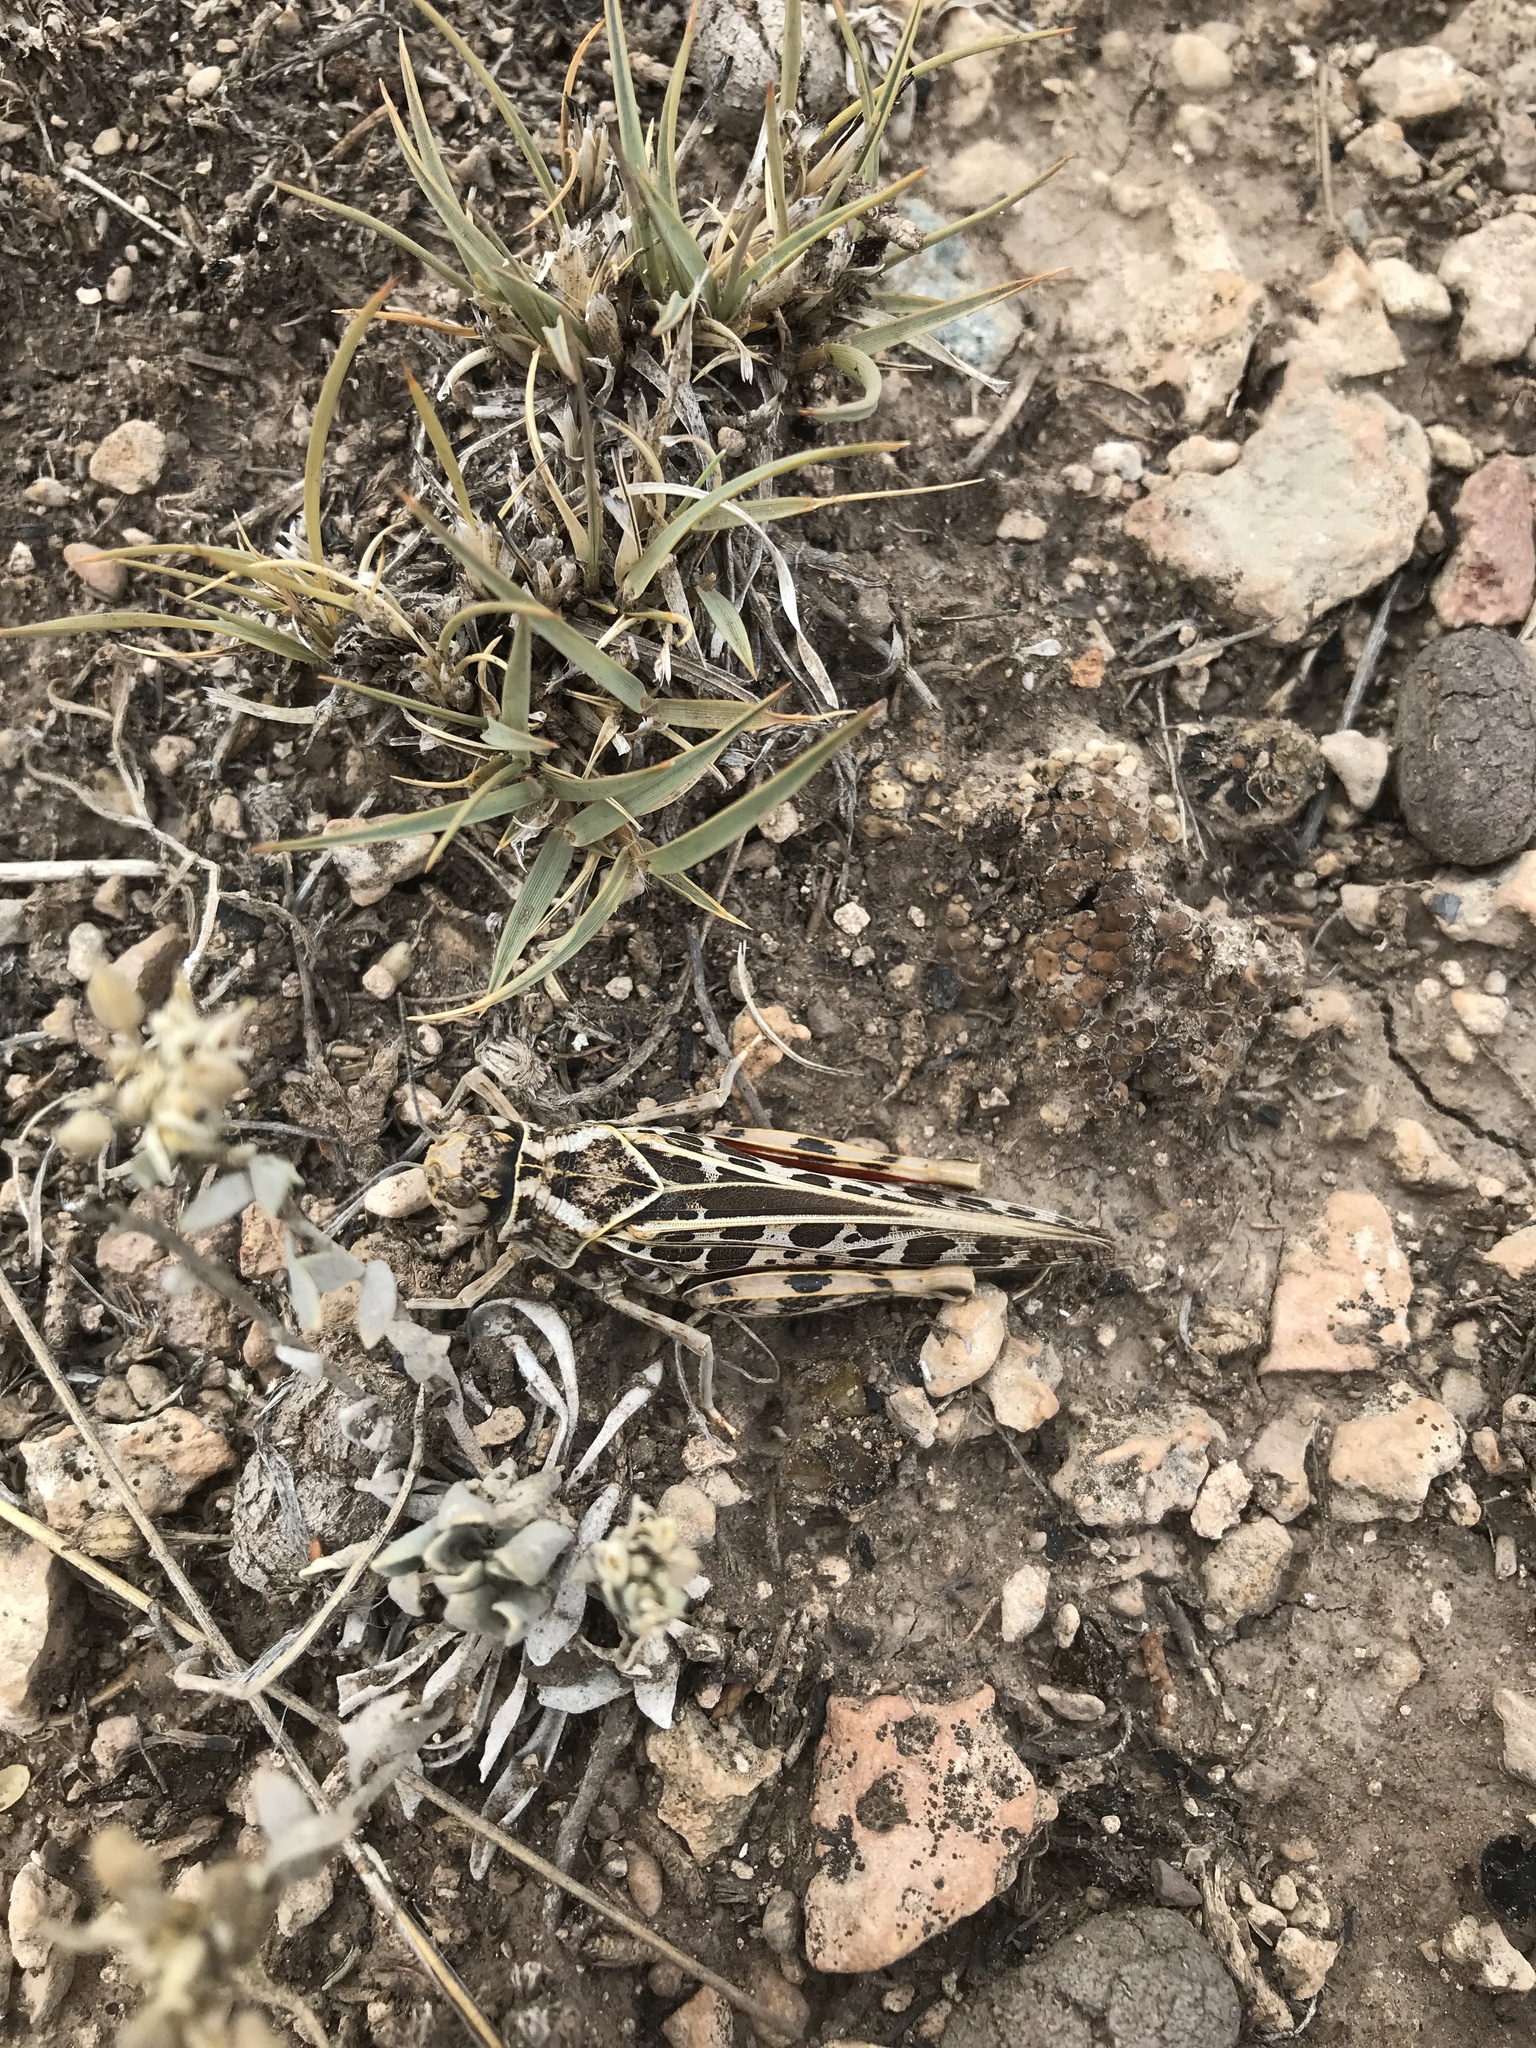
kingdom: Animalia
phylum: Arthropoda
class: Insecta
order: Orthoptera
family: Acrididae
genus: Xanthippus
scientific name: Xanthippus corallipes
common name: Redshanked grasshopper
